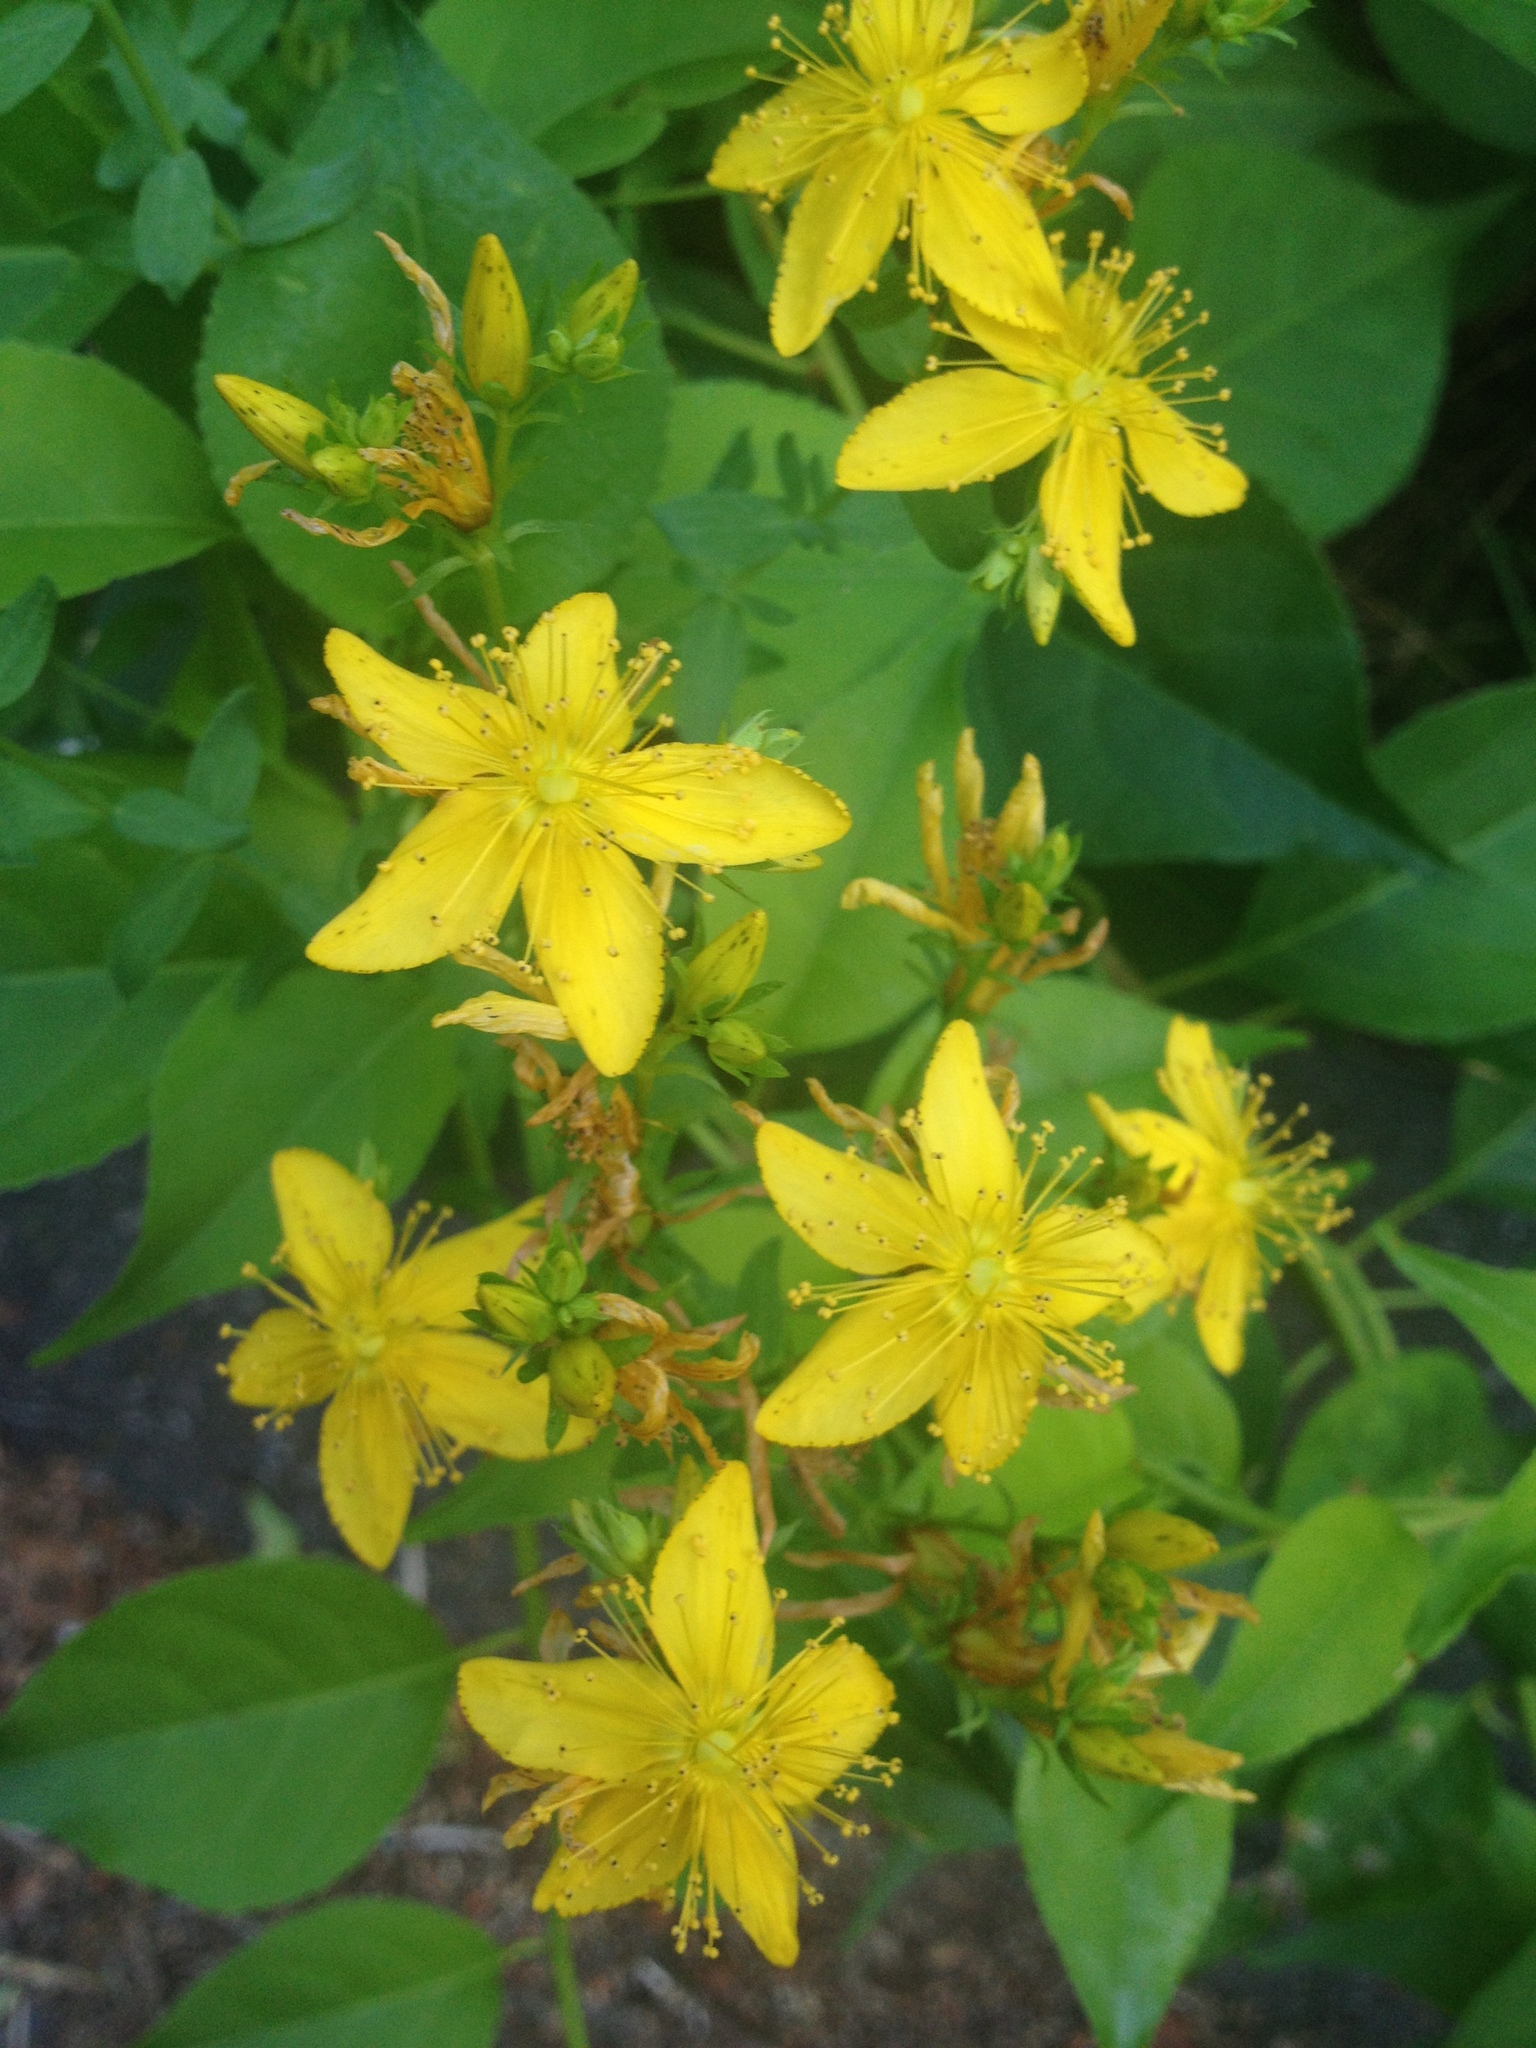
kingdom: Plantae
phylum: Tracheophyta
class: Magnoliopsida
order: Malpighiales
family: Hypericaceae
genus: Hypericum
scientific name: Hypericum perforatum
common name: Common st. johnswort
